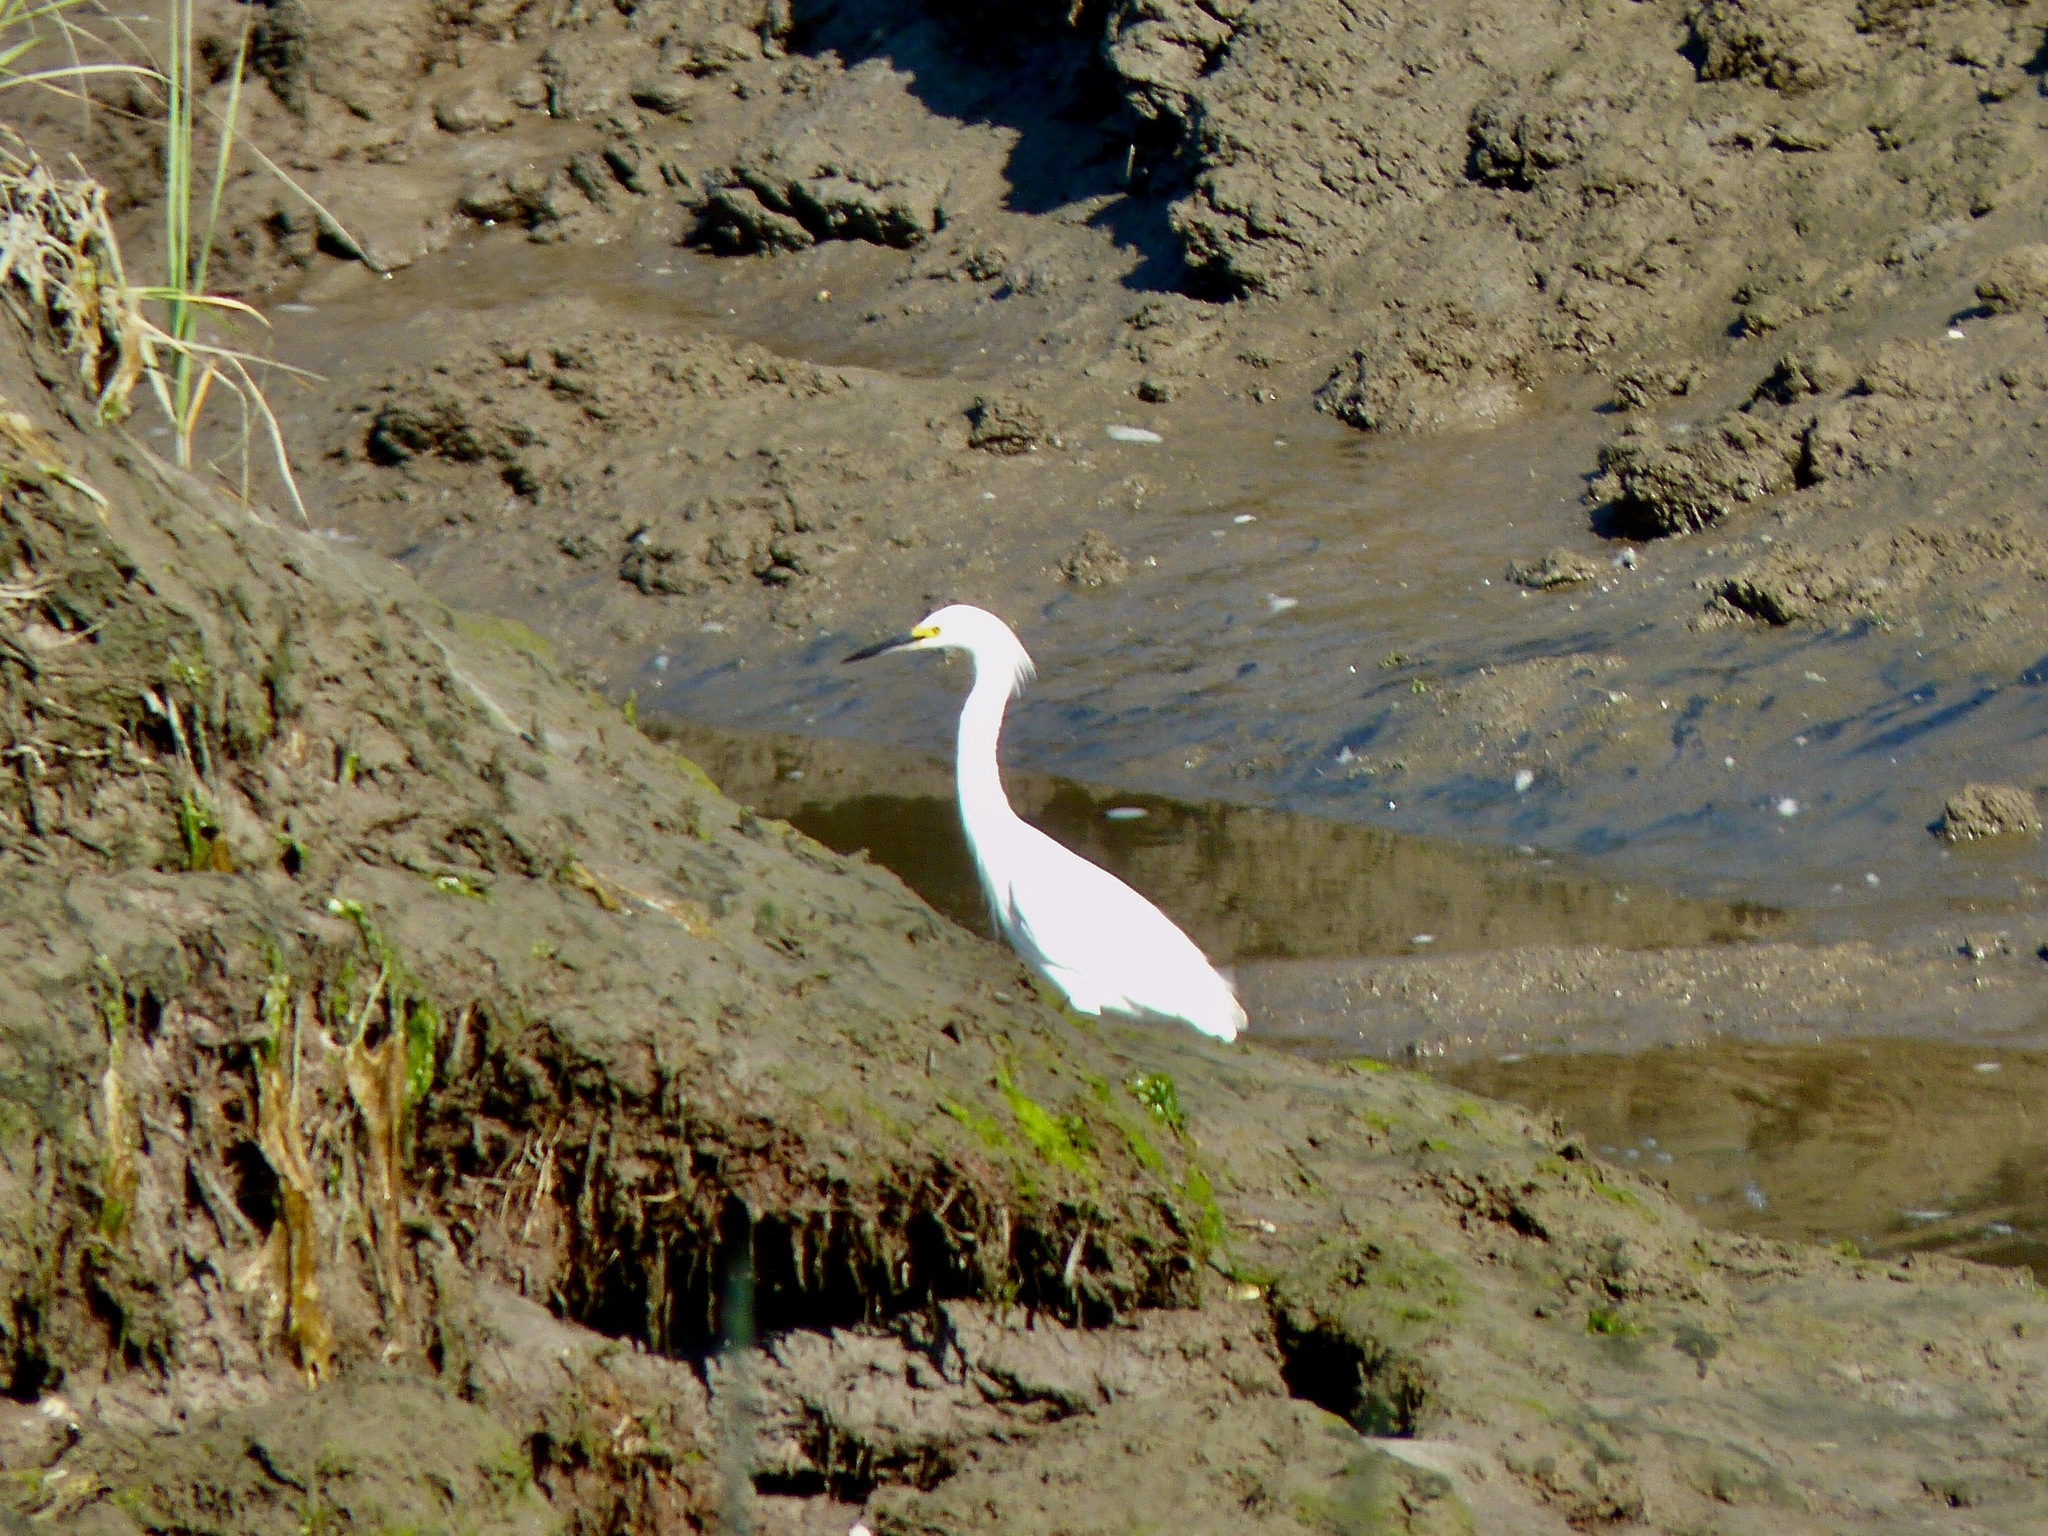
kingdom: Animalia
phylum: Chordata
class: Aves
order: Pelecaniformes
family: Ardeidae
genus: Egretta
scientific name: Egretta thula
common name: Snowy egret
